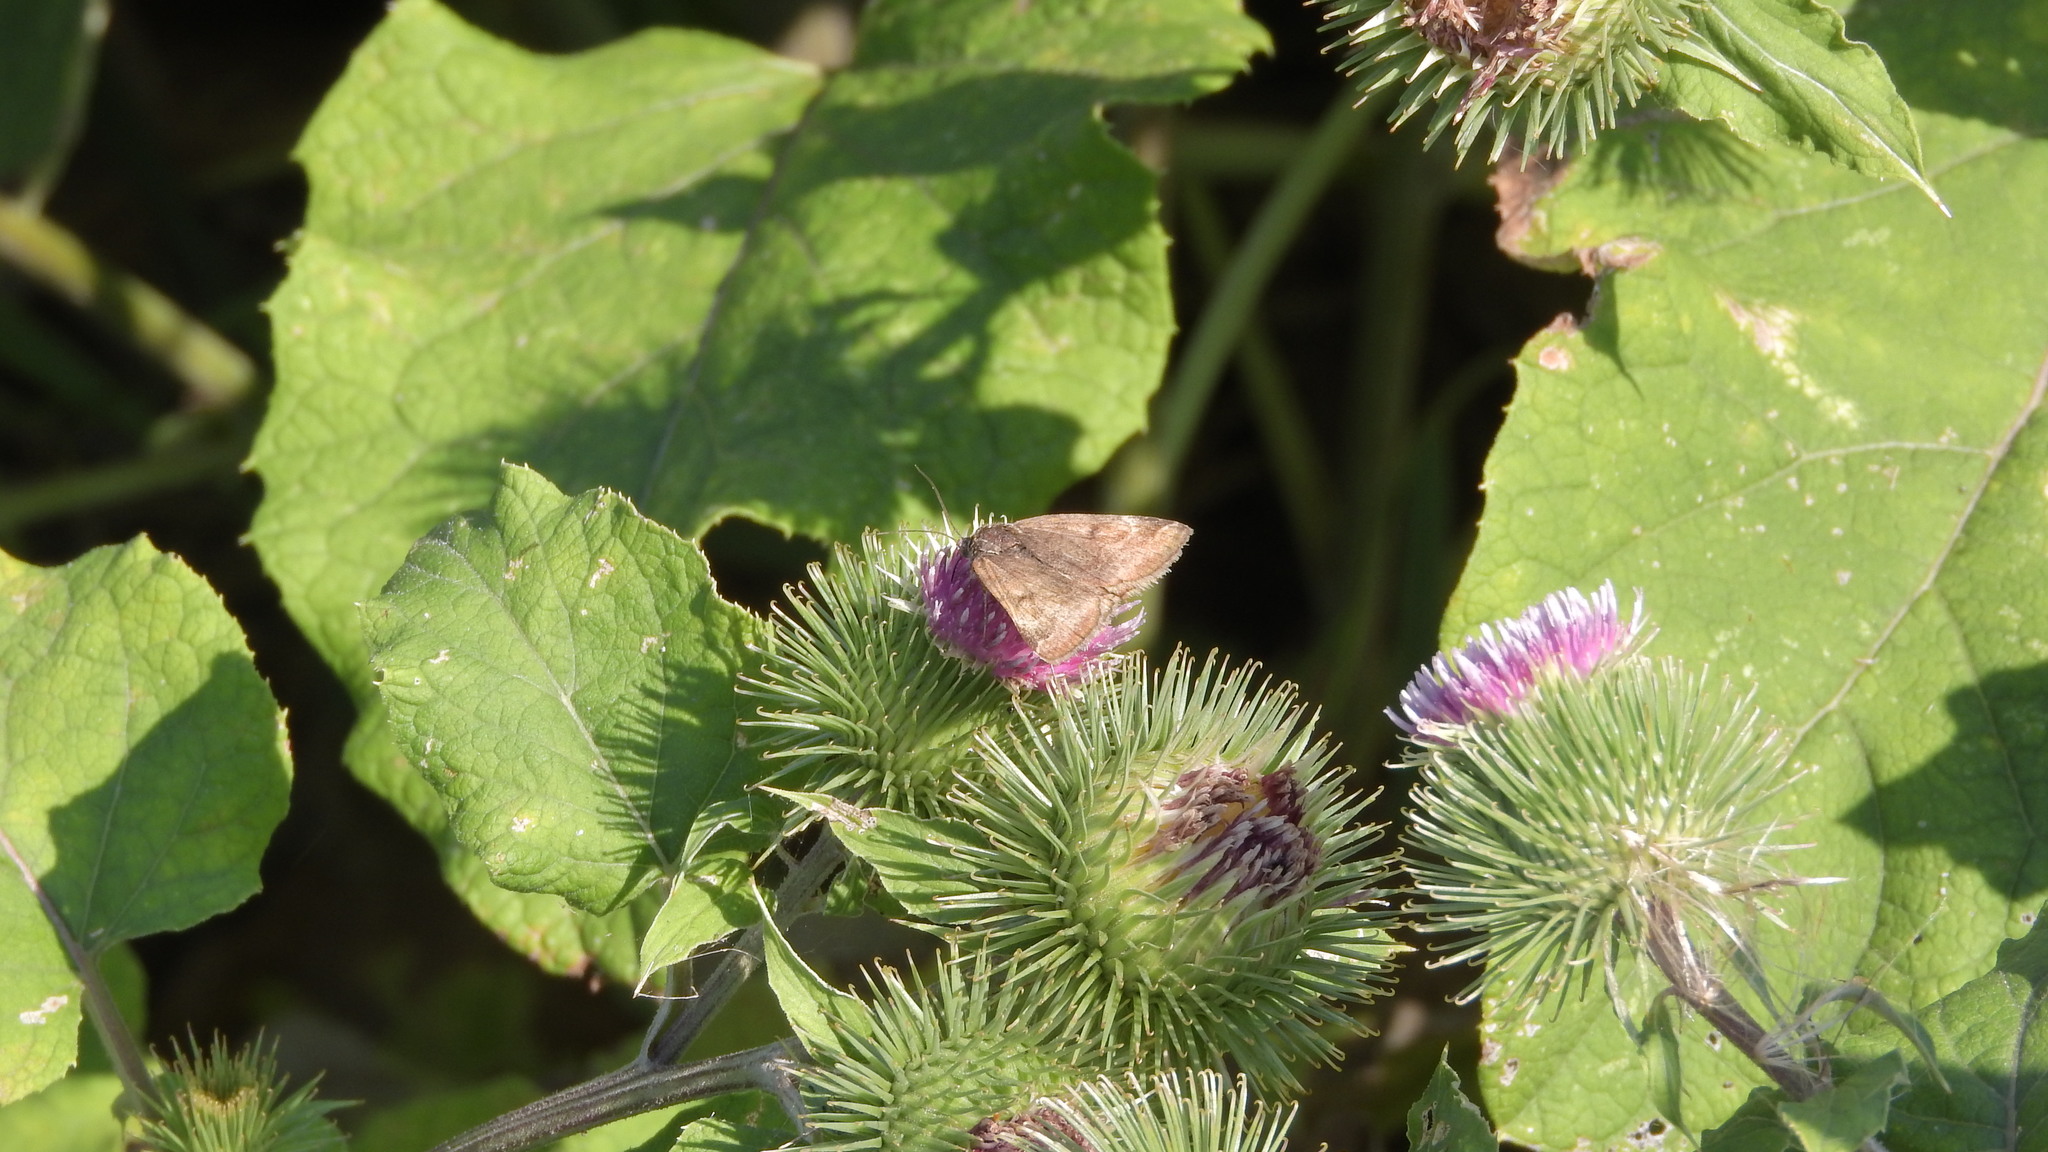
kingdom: Animalia
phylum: Arthropoda
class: Insecta
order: Lepidoptera
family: Erebidae
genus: Euclidia
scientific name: Euclidia glyphica
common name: Burnet companion
